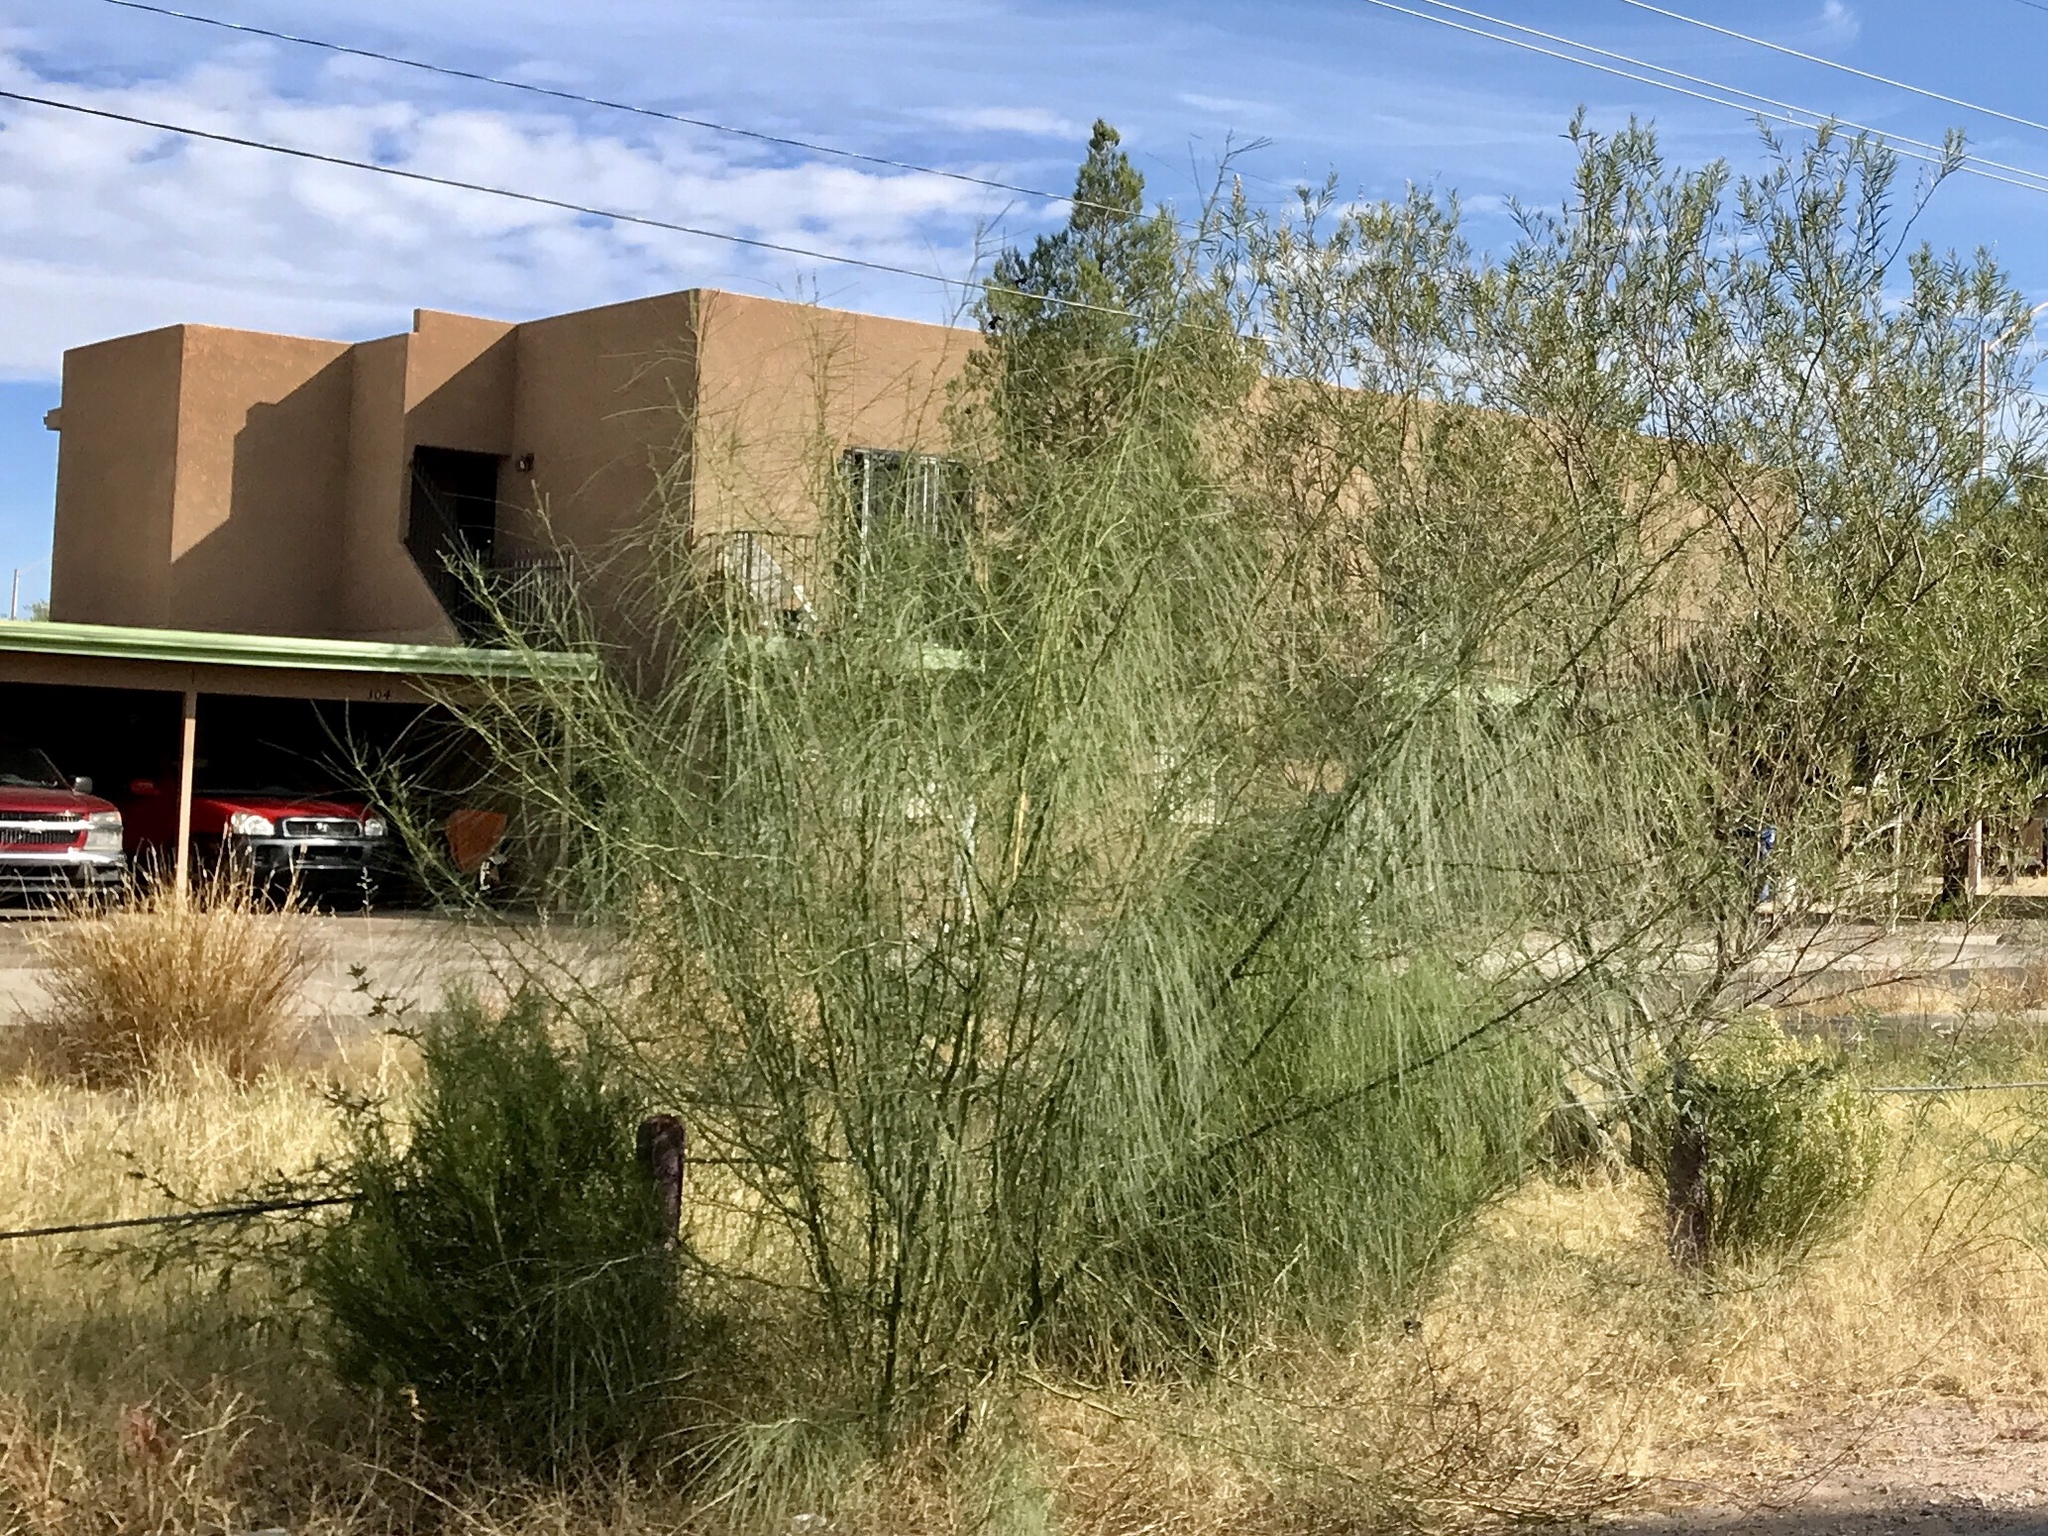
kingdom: Plantae
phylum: Tracheophyta
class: Magnoliopsida
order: Fabales
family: Fabaceae
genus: Parkinsonia
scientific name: Parkinsonia aculeata
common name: Jerusalem thorn
